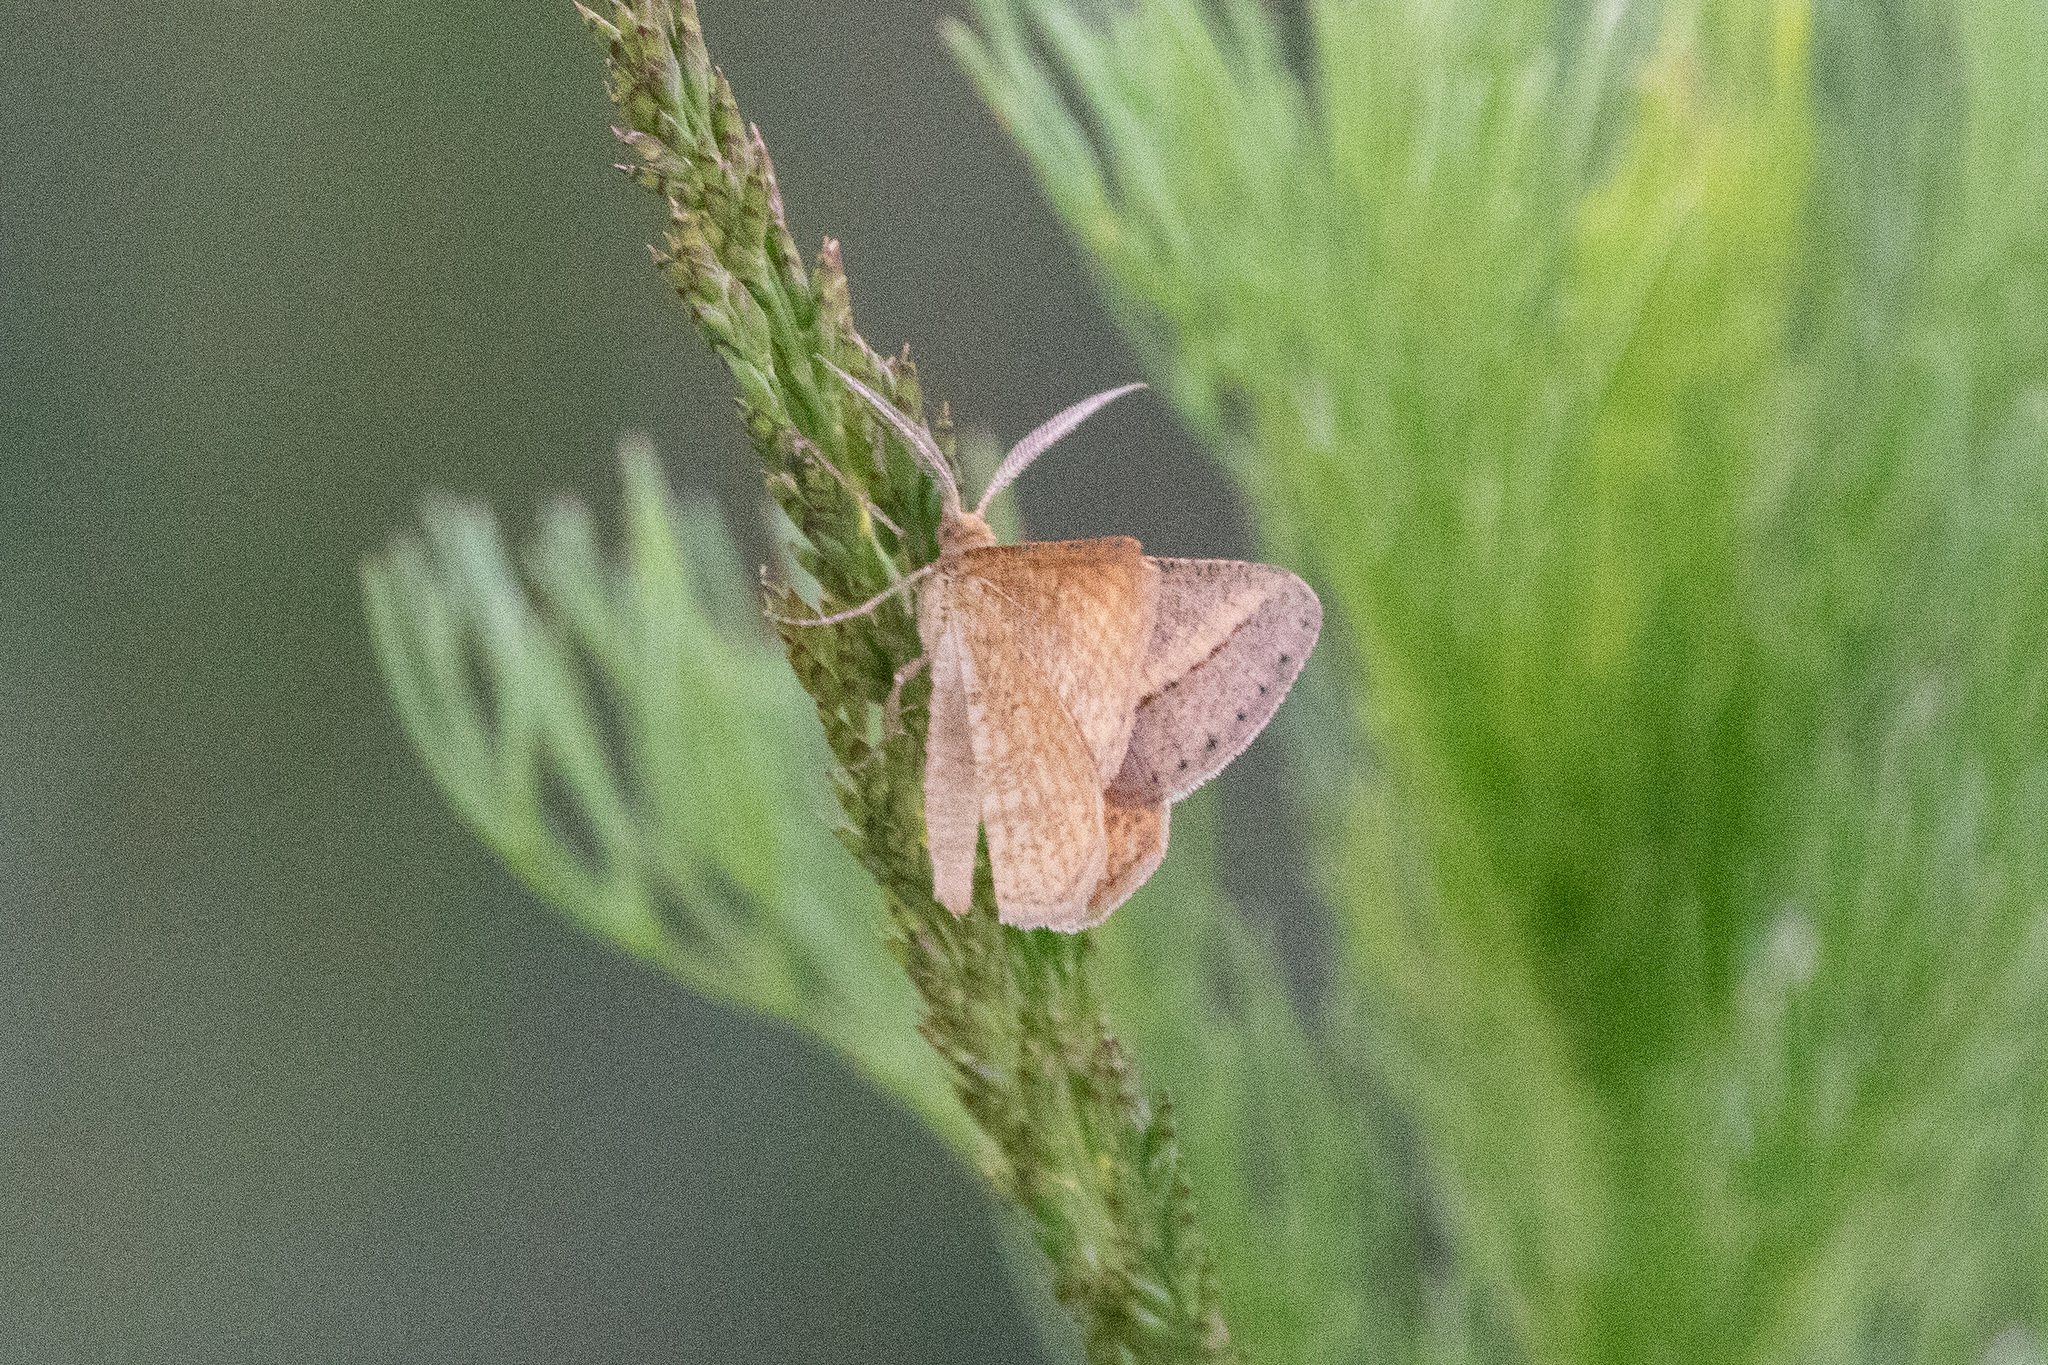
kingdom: Animalia
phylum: Arthropoda
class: Insecta
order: Lepidoptera
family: Geometridae
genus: Tephrina
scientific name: Tephrina arenacearia
